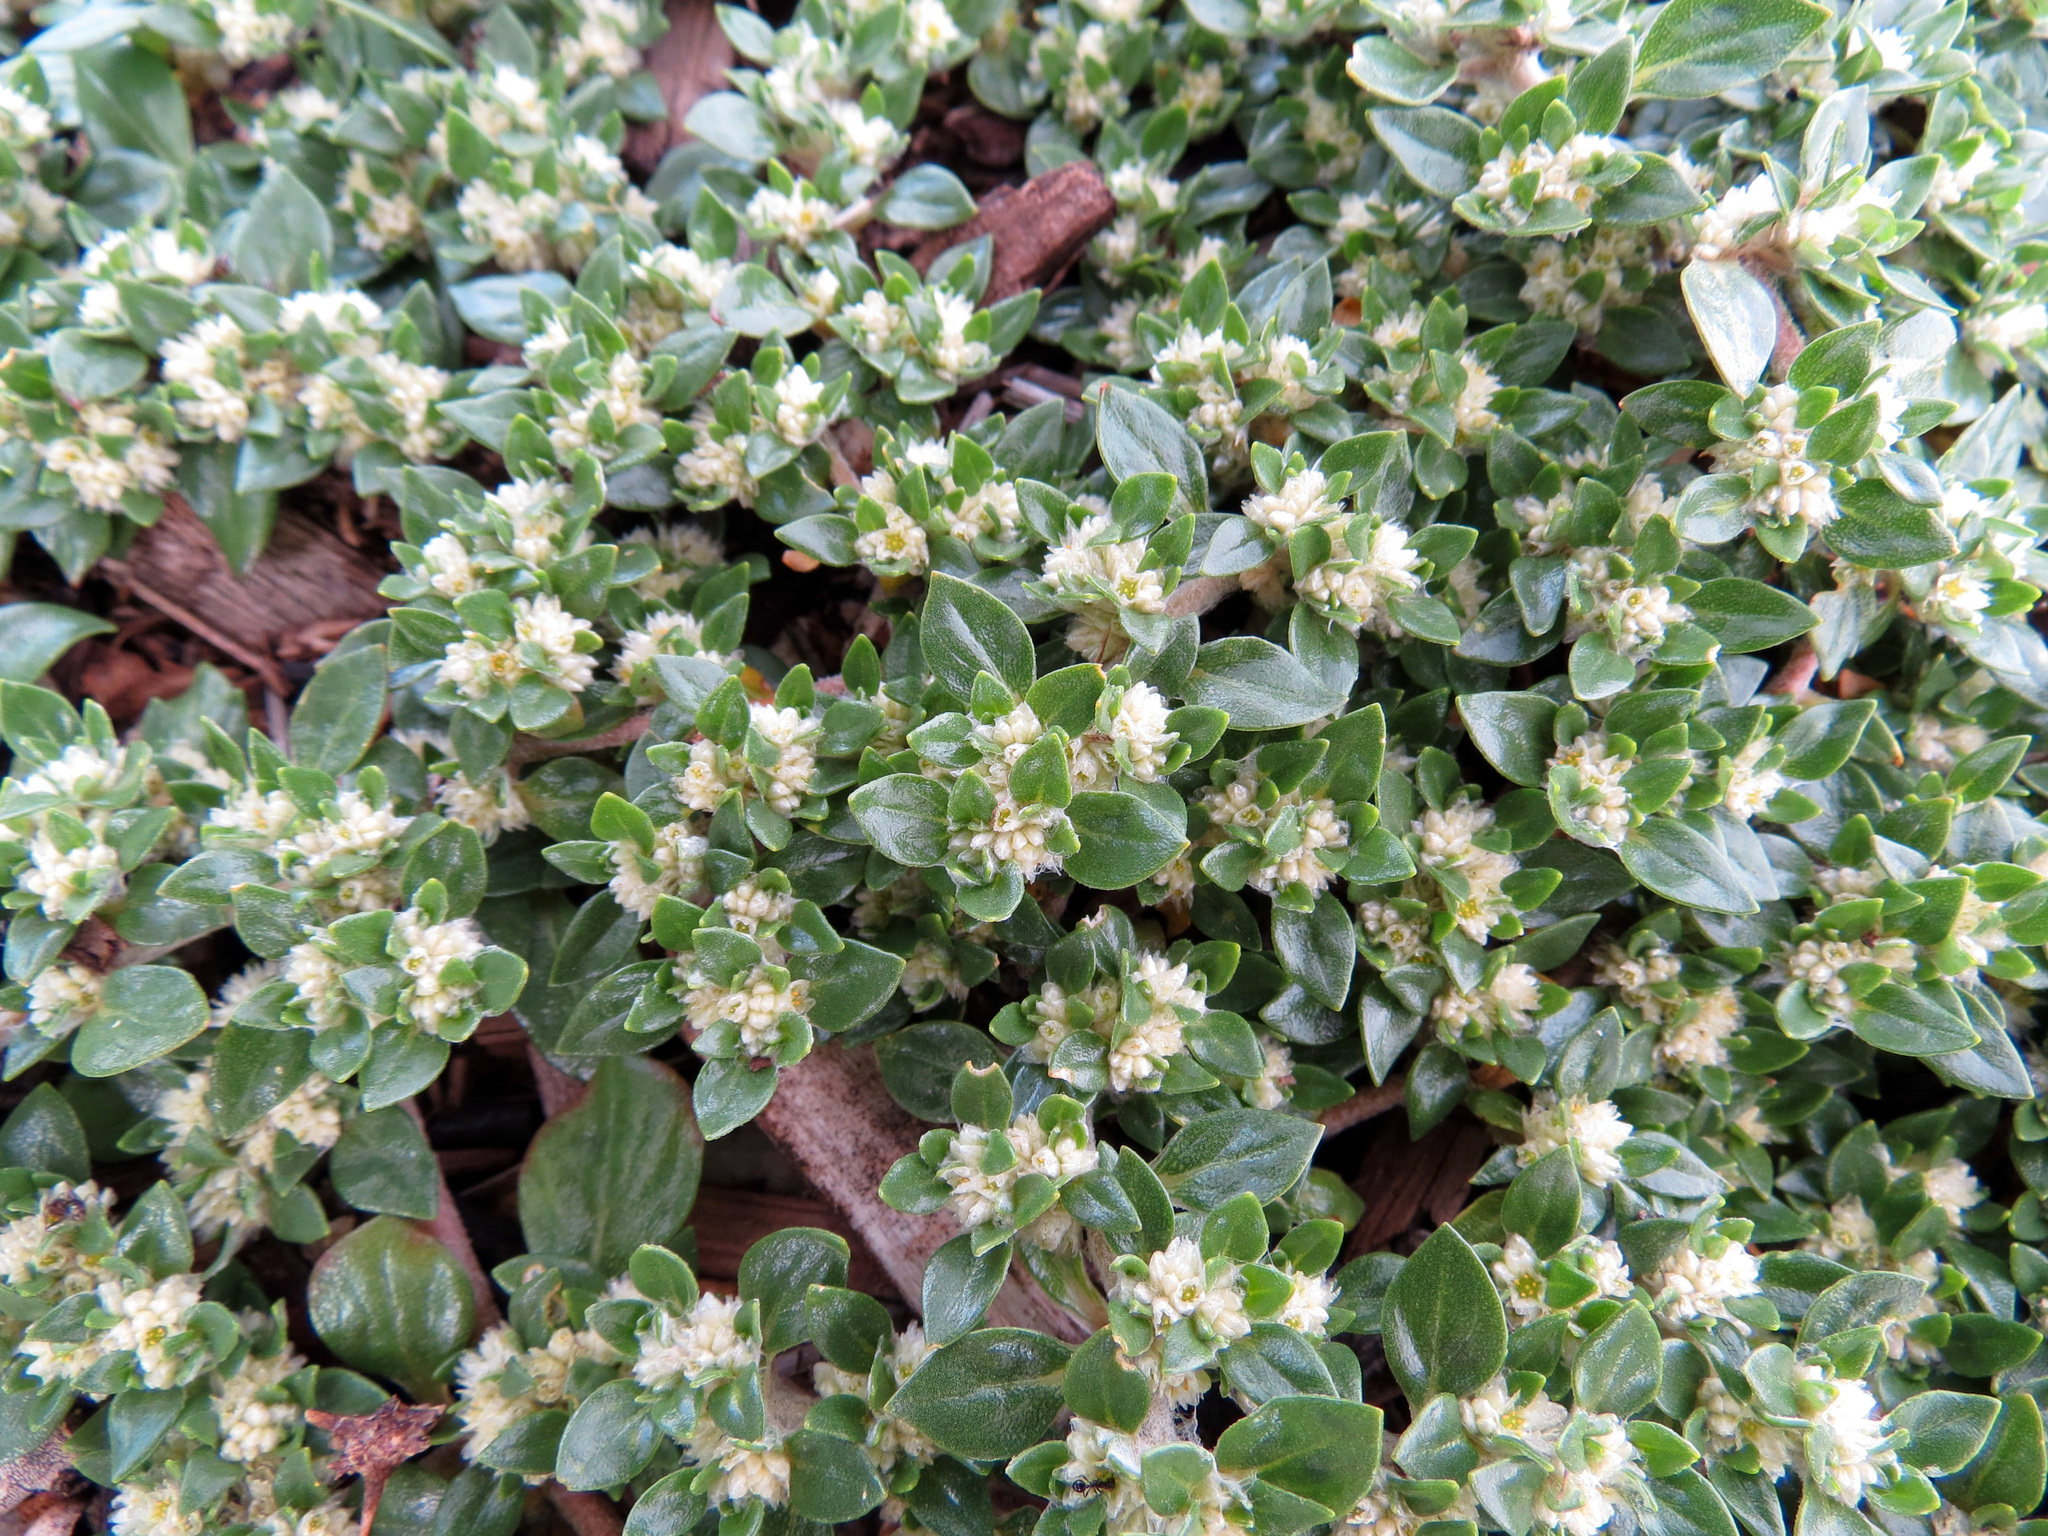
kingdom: Plantae
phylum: Tracheophyta
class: Magnoliopsida
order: Caryophyllales
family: Amaranthaceae
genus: Guilleminea
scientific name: Guilleminea densa
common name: Small matweed
